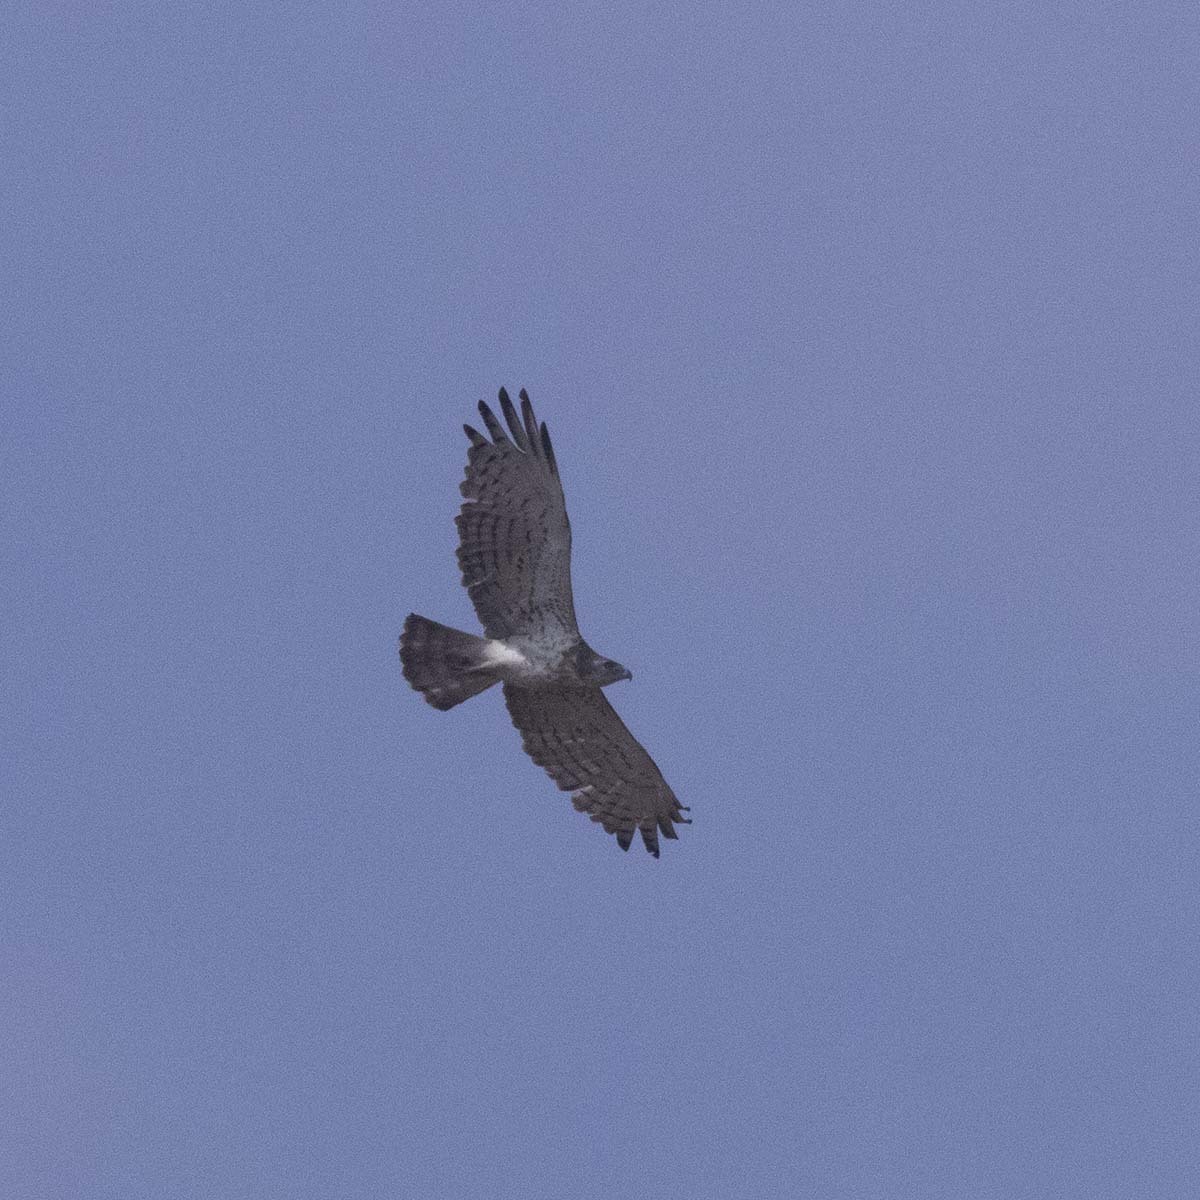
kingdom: Animalia
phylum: Chordata
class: Aves
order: Accipitriformes
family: Accipitridae
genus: Circaetus
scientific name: Circaetus gallicus
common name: Short-toed snake eagle
